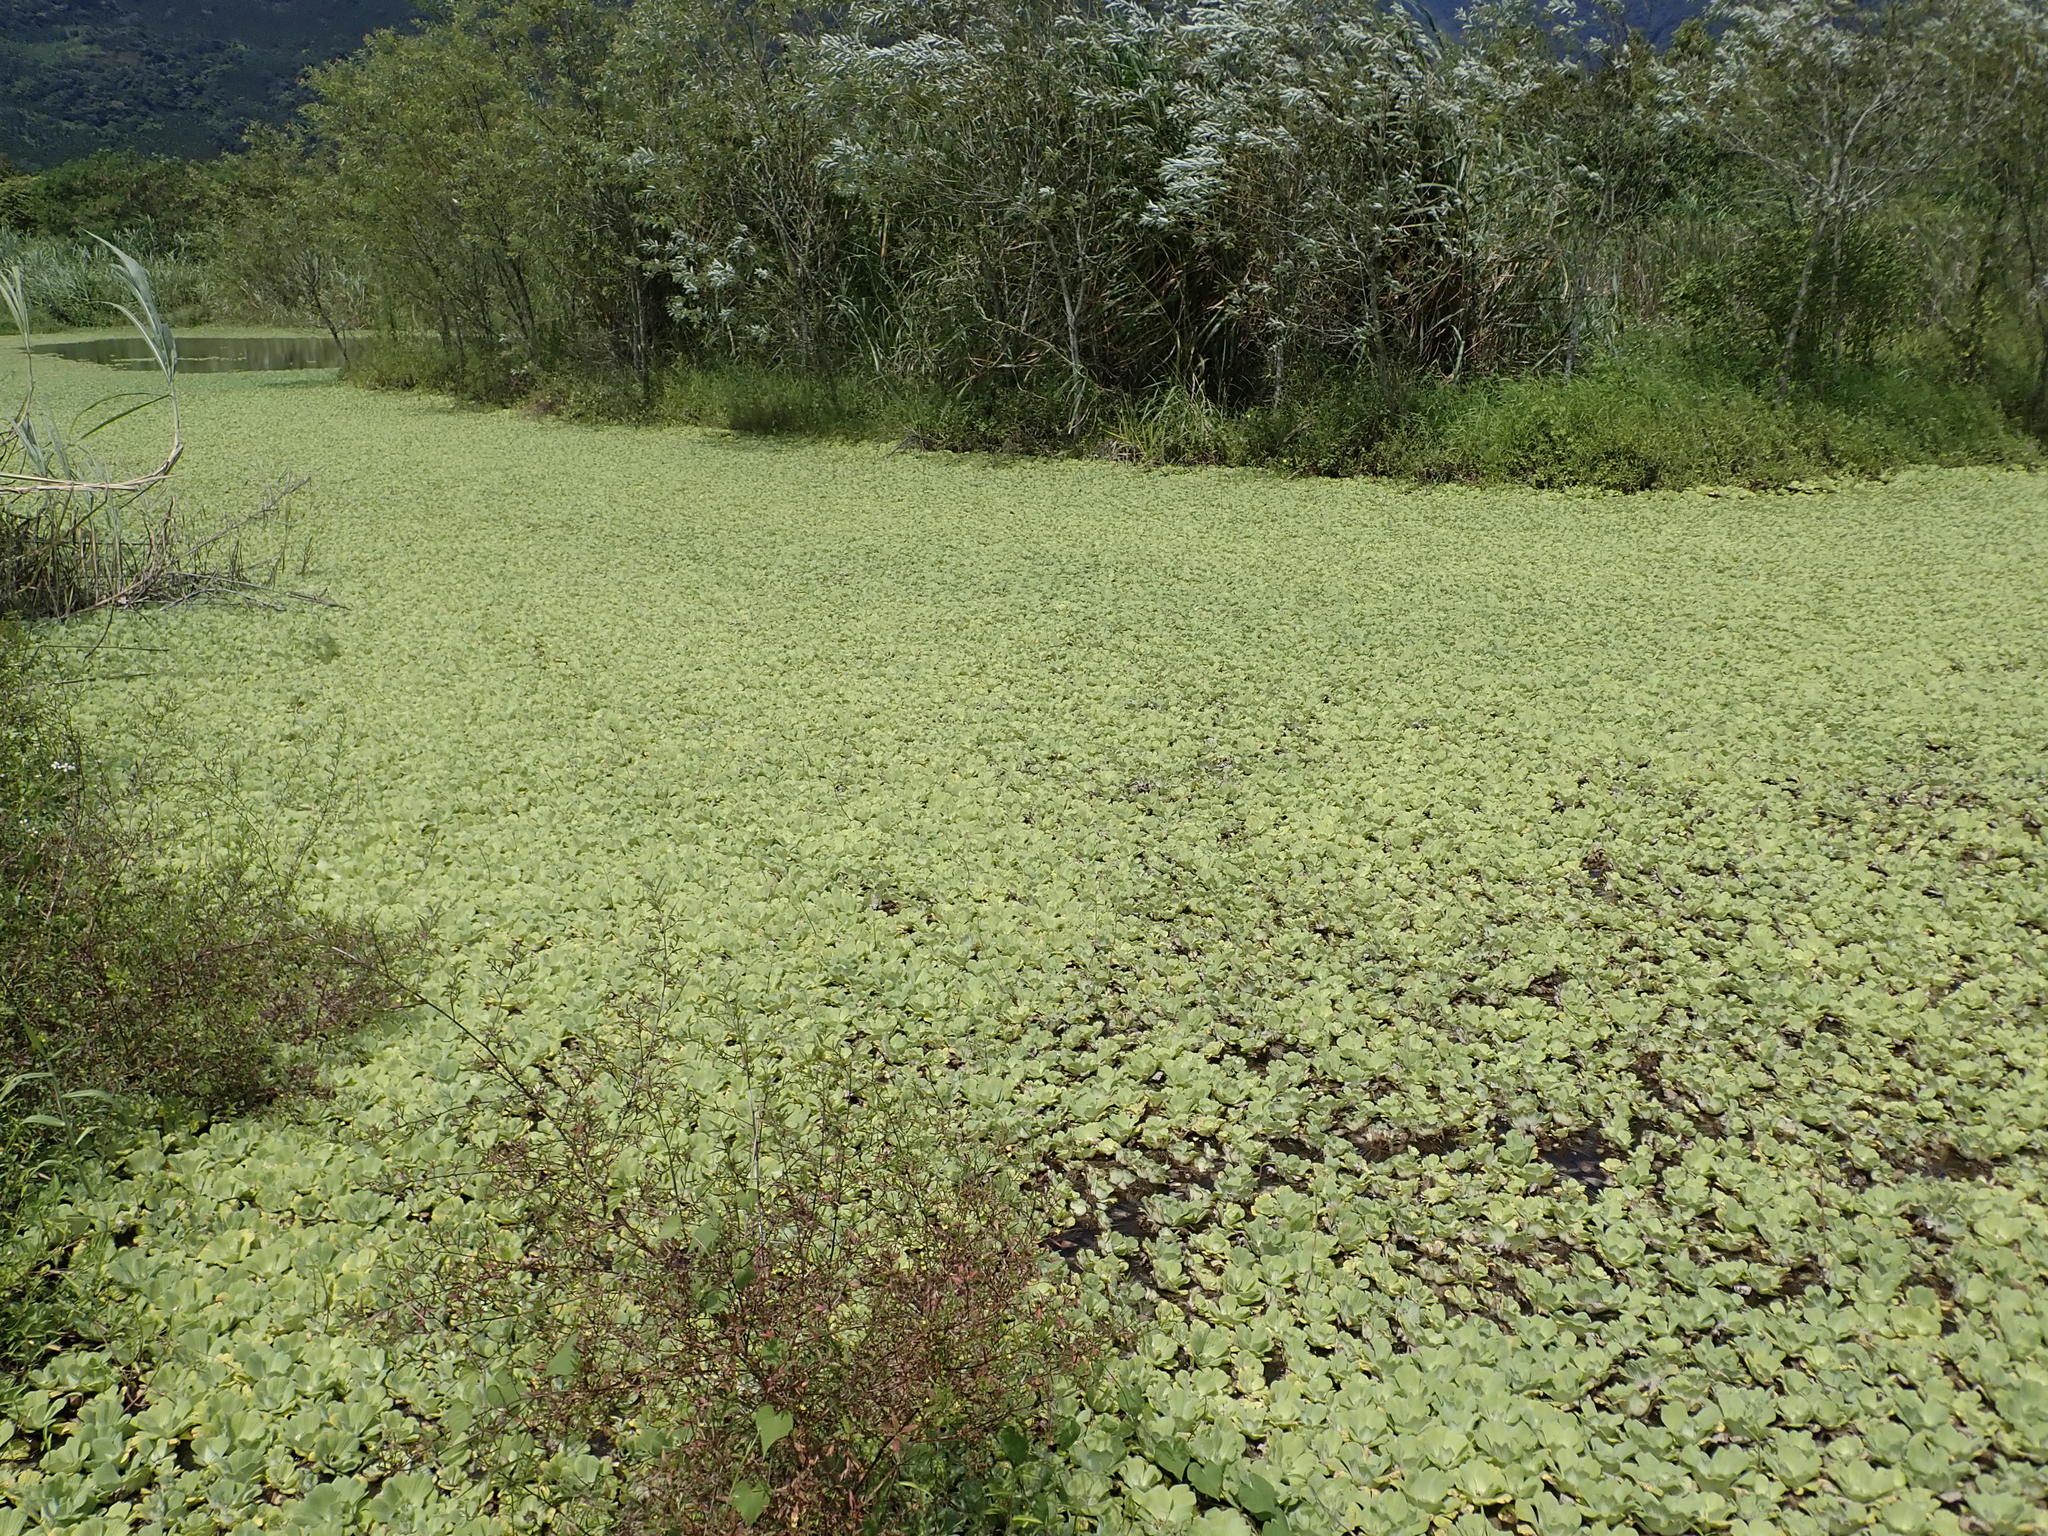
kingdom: Plantae
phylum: Tracheophyta
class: Liliopsida
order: Alismatales
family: Araceae
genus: Pistia
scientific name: Pistia stratiotes
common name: Water lettuce
